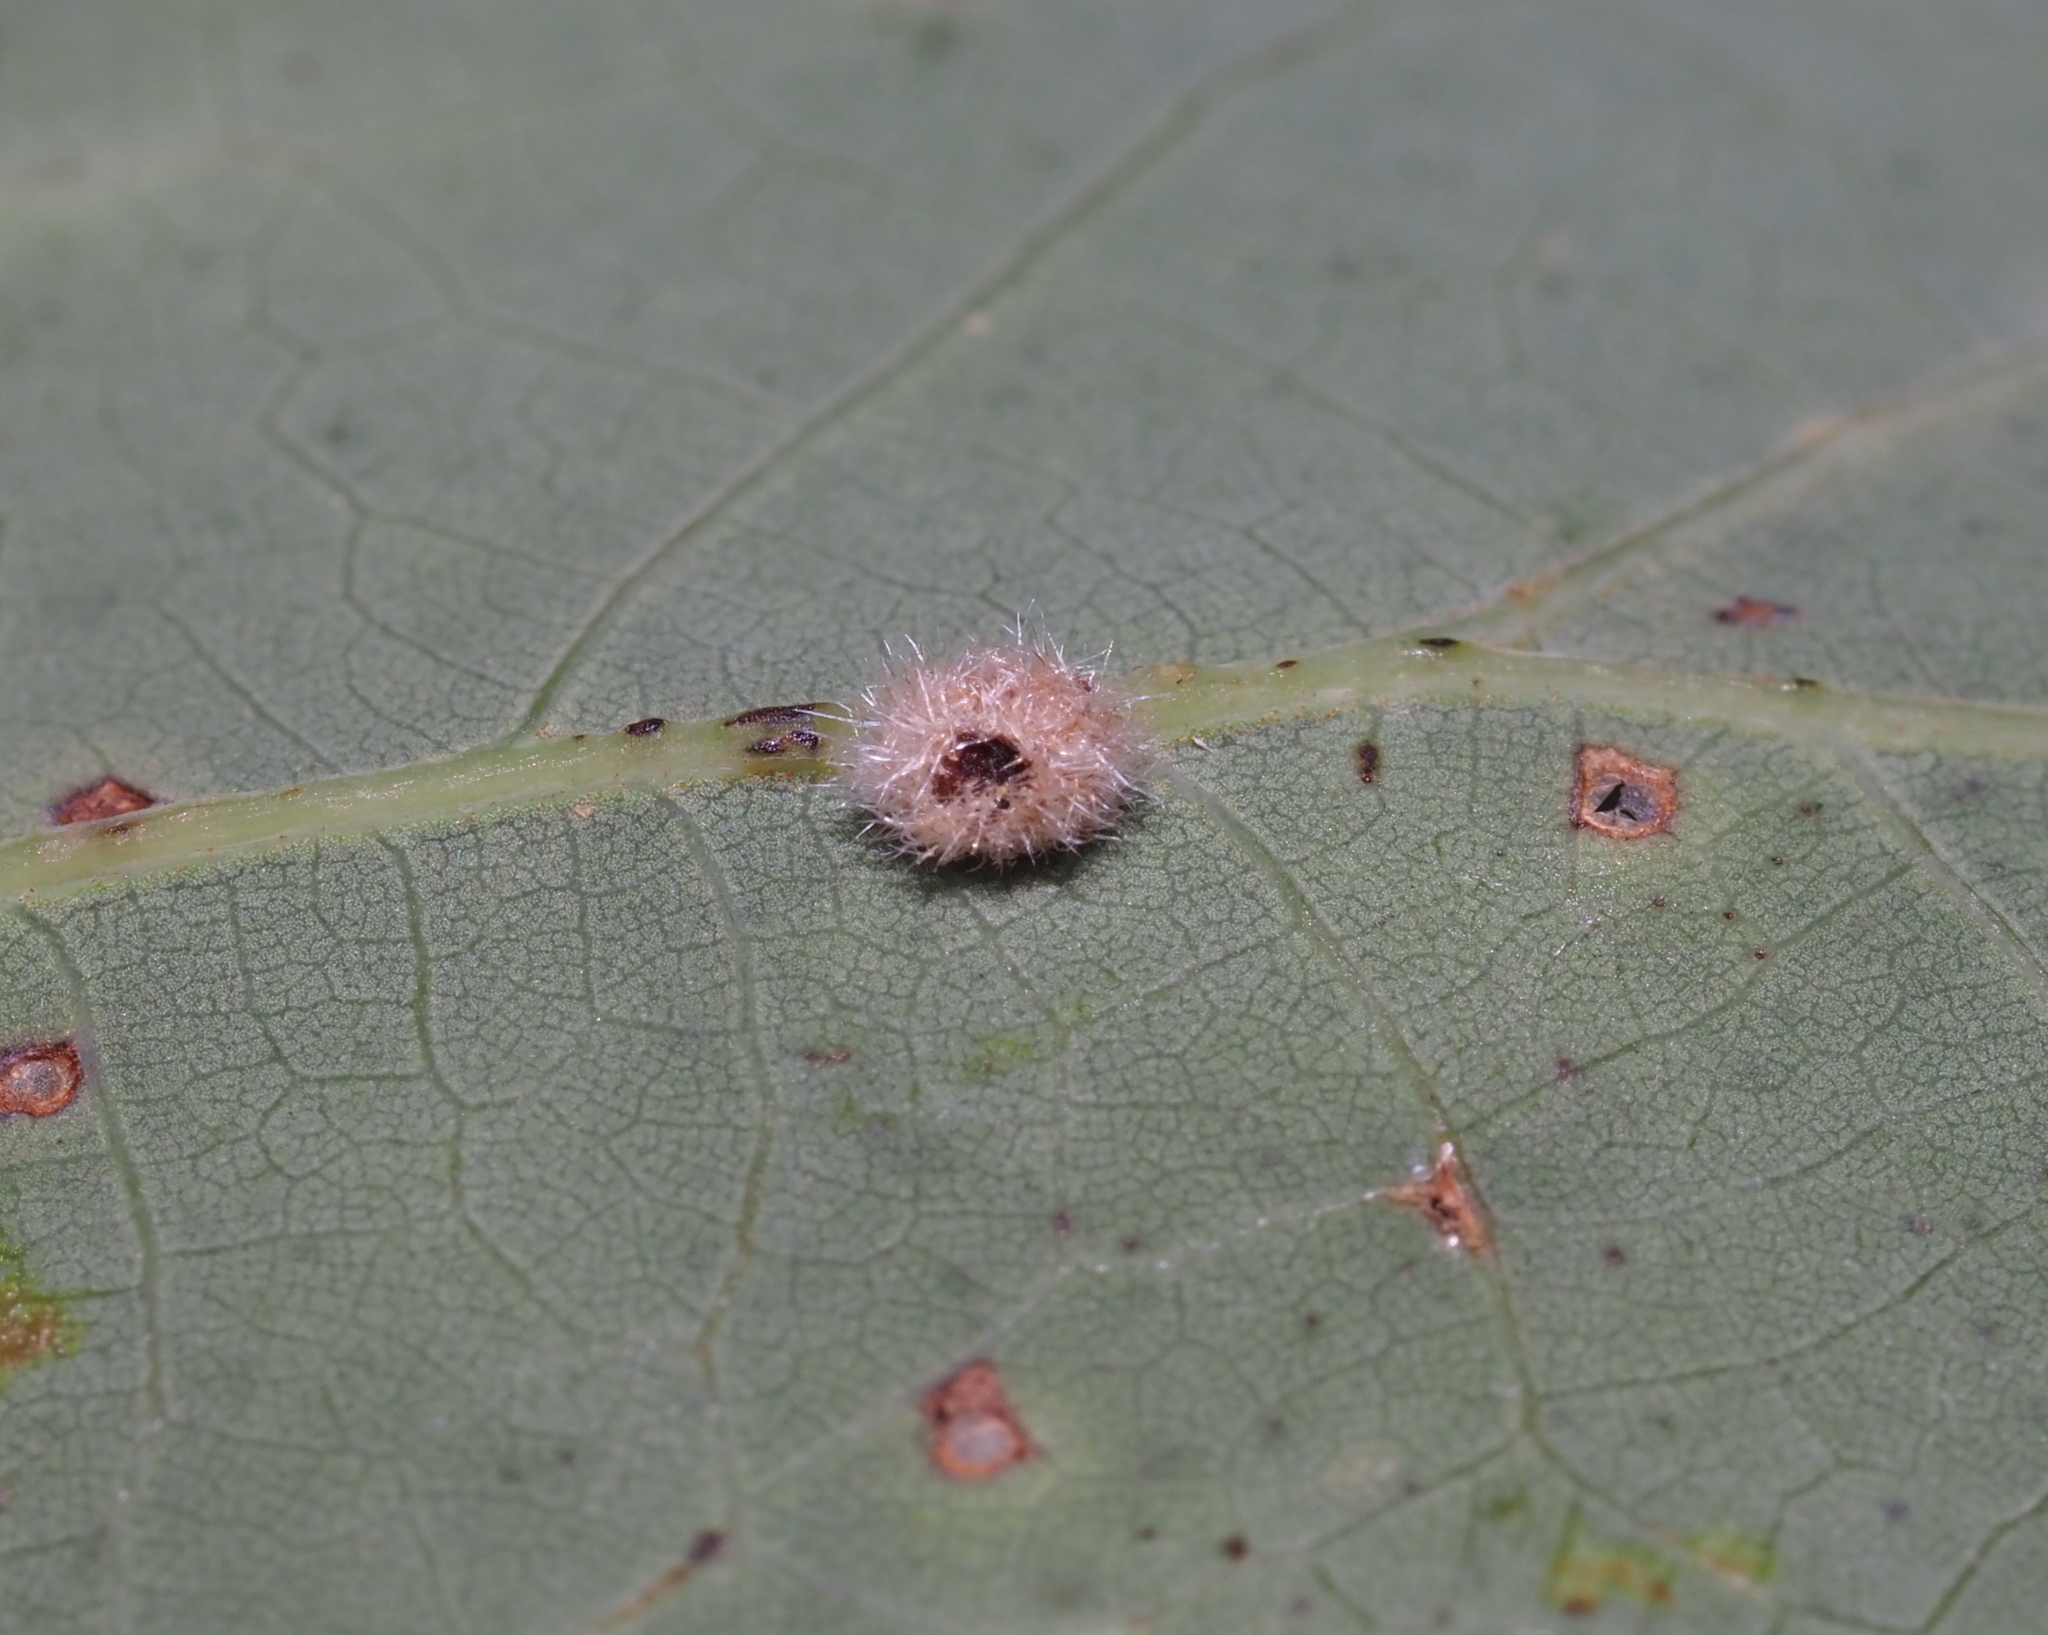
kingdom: Animalia
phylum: Arthropoda
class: Insecta
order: Hymenoptera
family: Cynipidae
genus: Philonix
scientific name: Philonix fulvicollis
